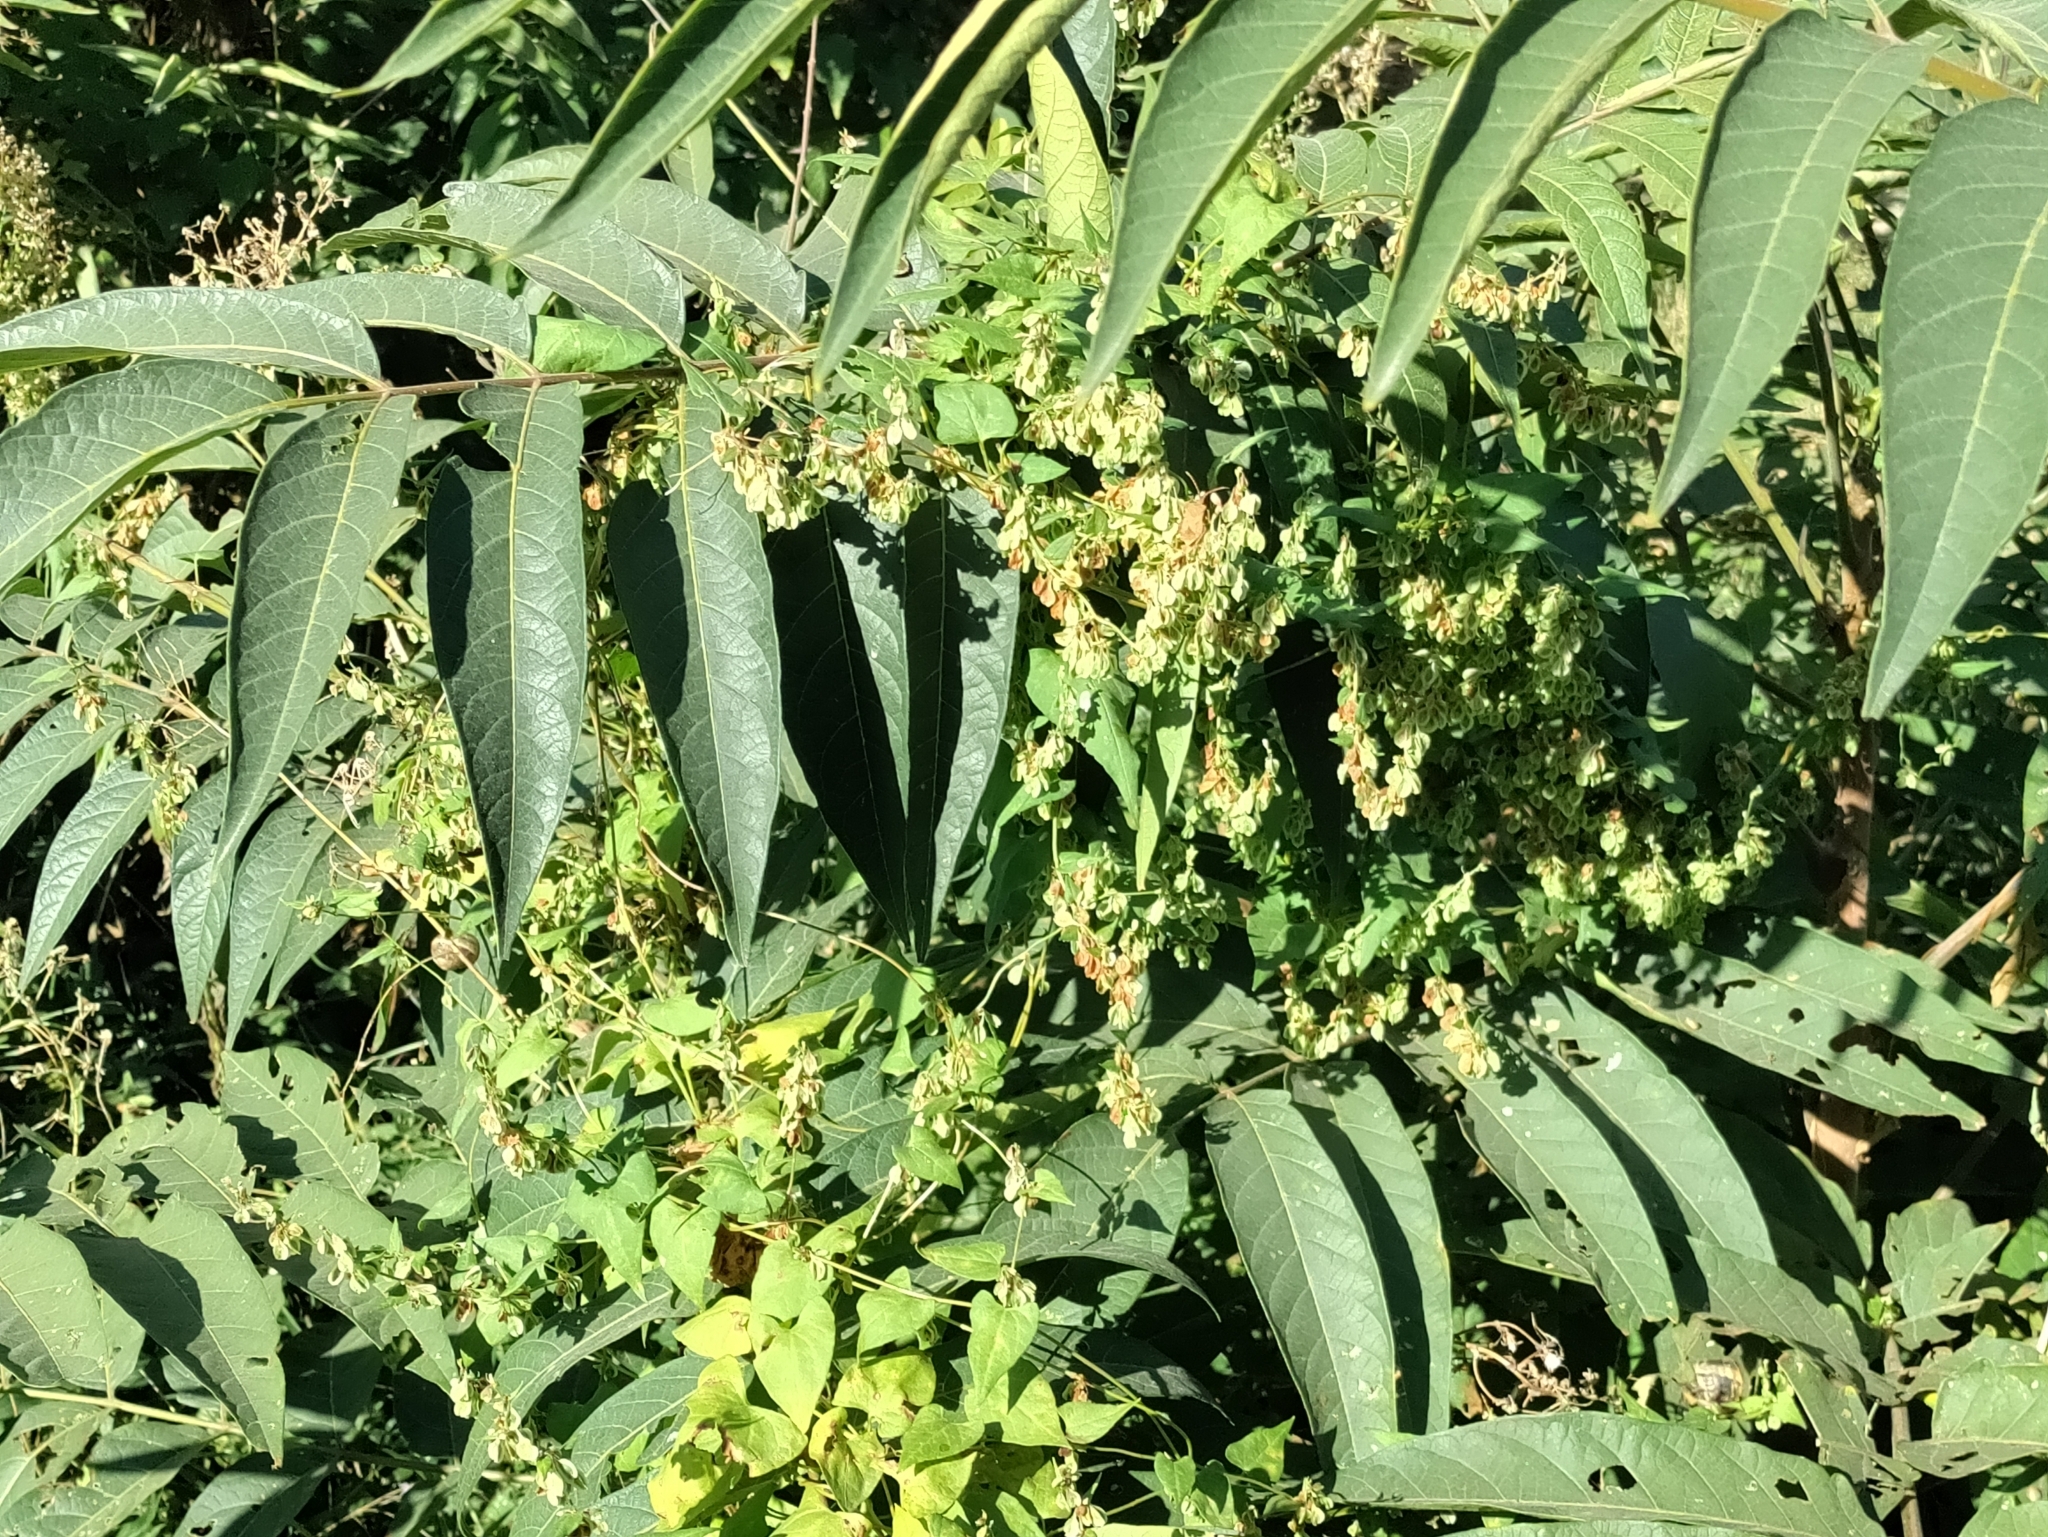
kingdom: Plantae
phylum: Tracheophyta
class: Magnoliopsida
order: Caryophyllales
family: Polygonaceae
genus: Fallopia
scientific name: Fallopia dumetorum
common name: Copse-bindweed
